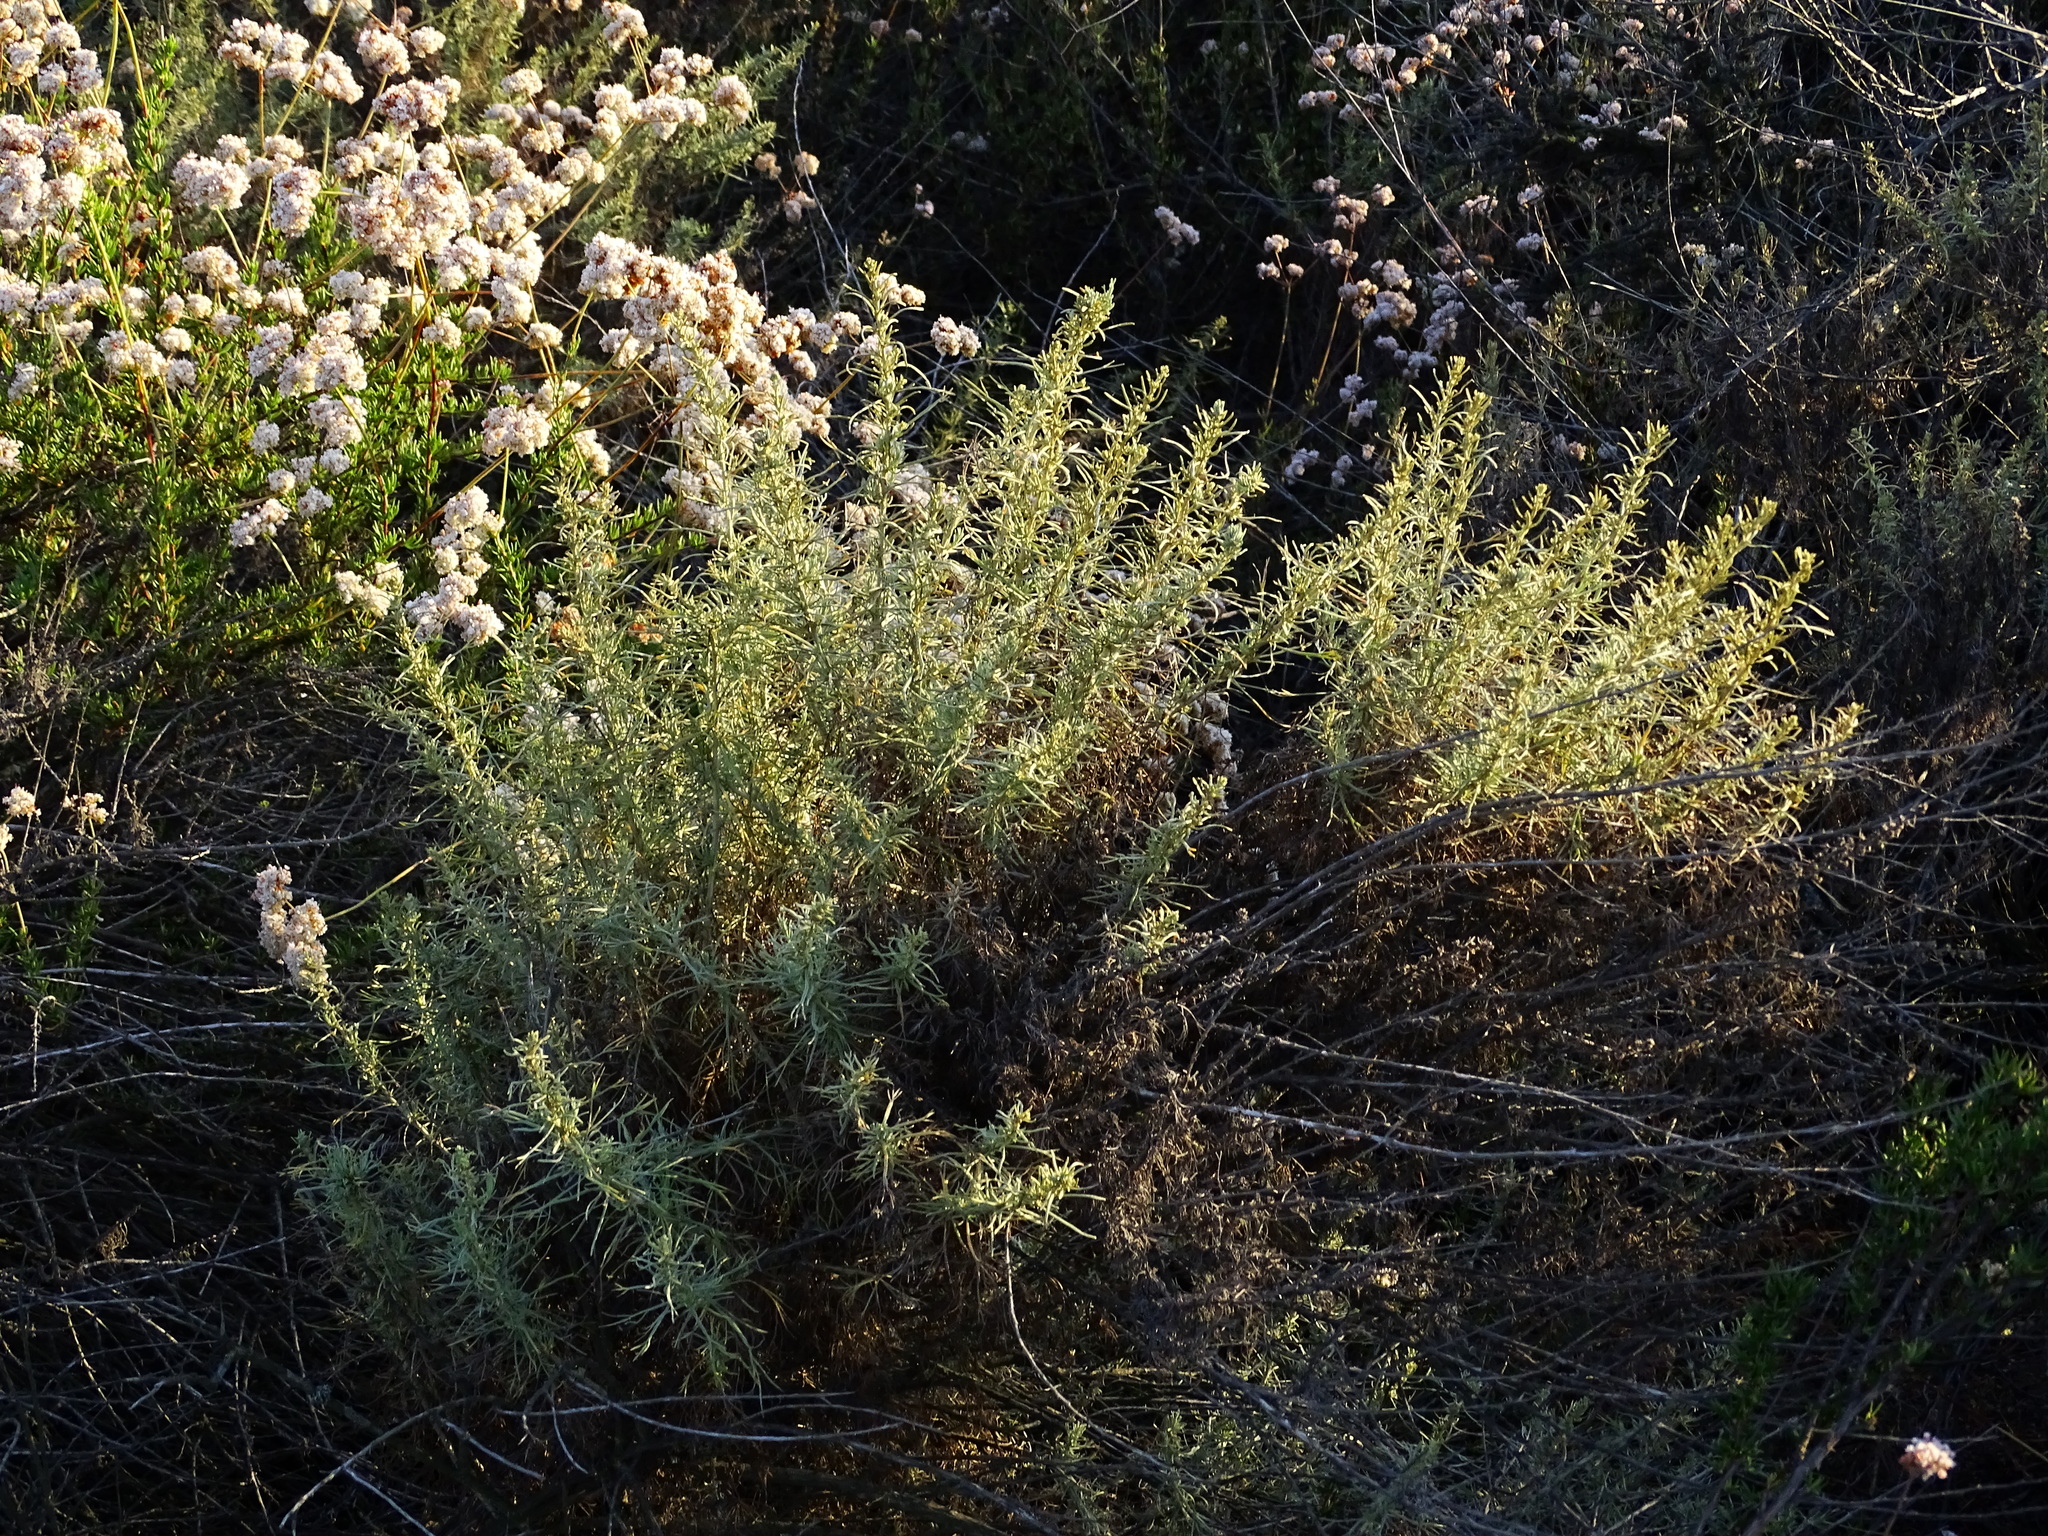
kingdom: Plantae
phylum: Tracheophyta
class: Magnoliopsida
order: Asterales
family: Asteraceae
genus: Artemisia
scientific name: Artemisia californica
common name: California sagebrush
